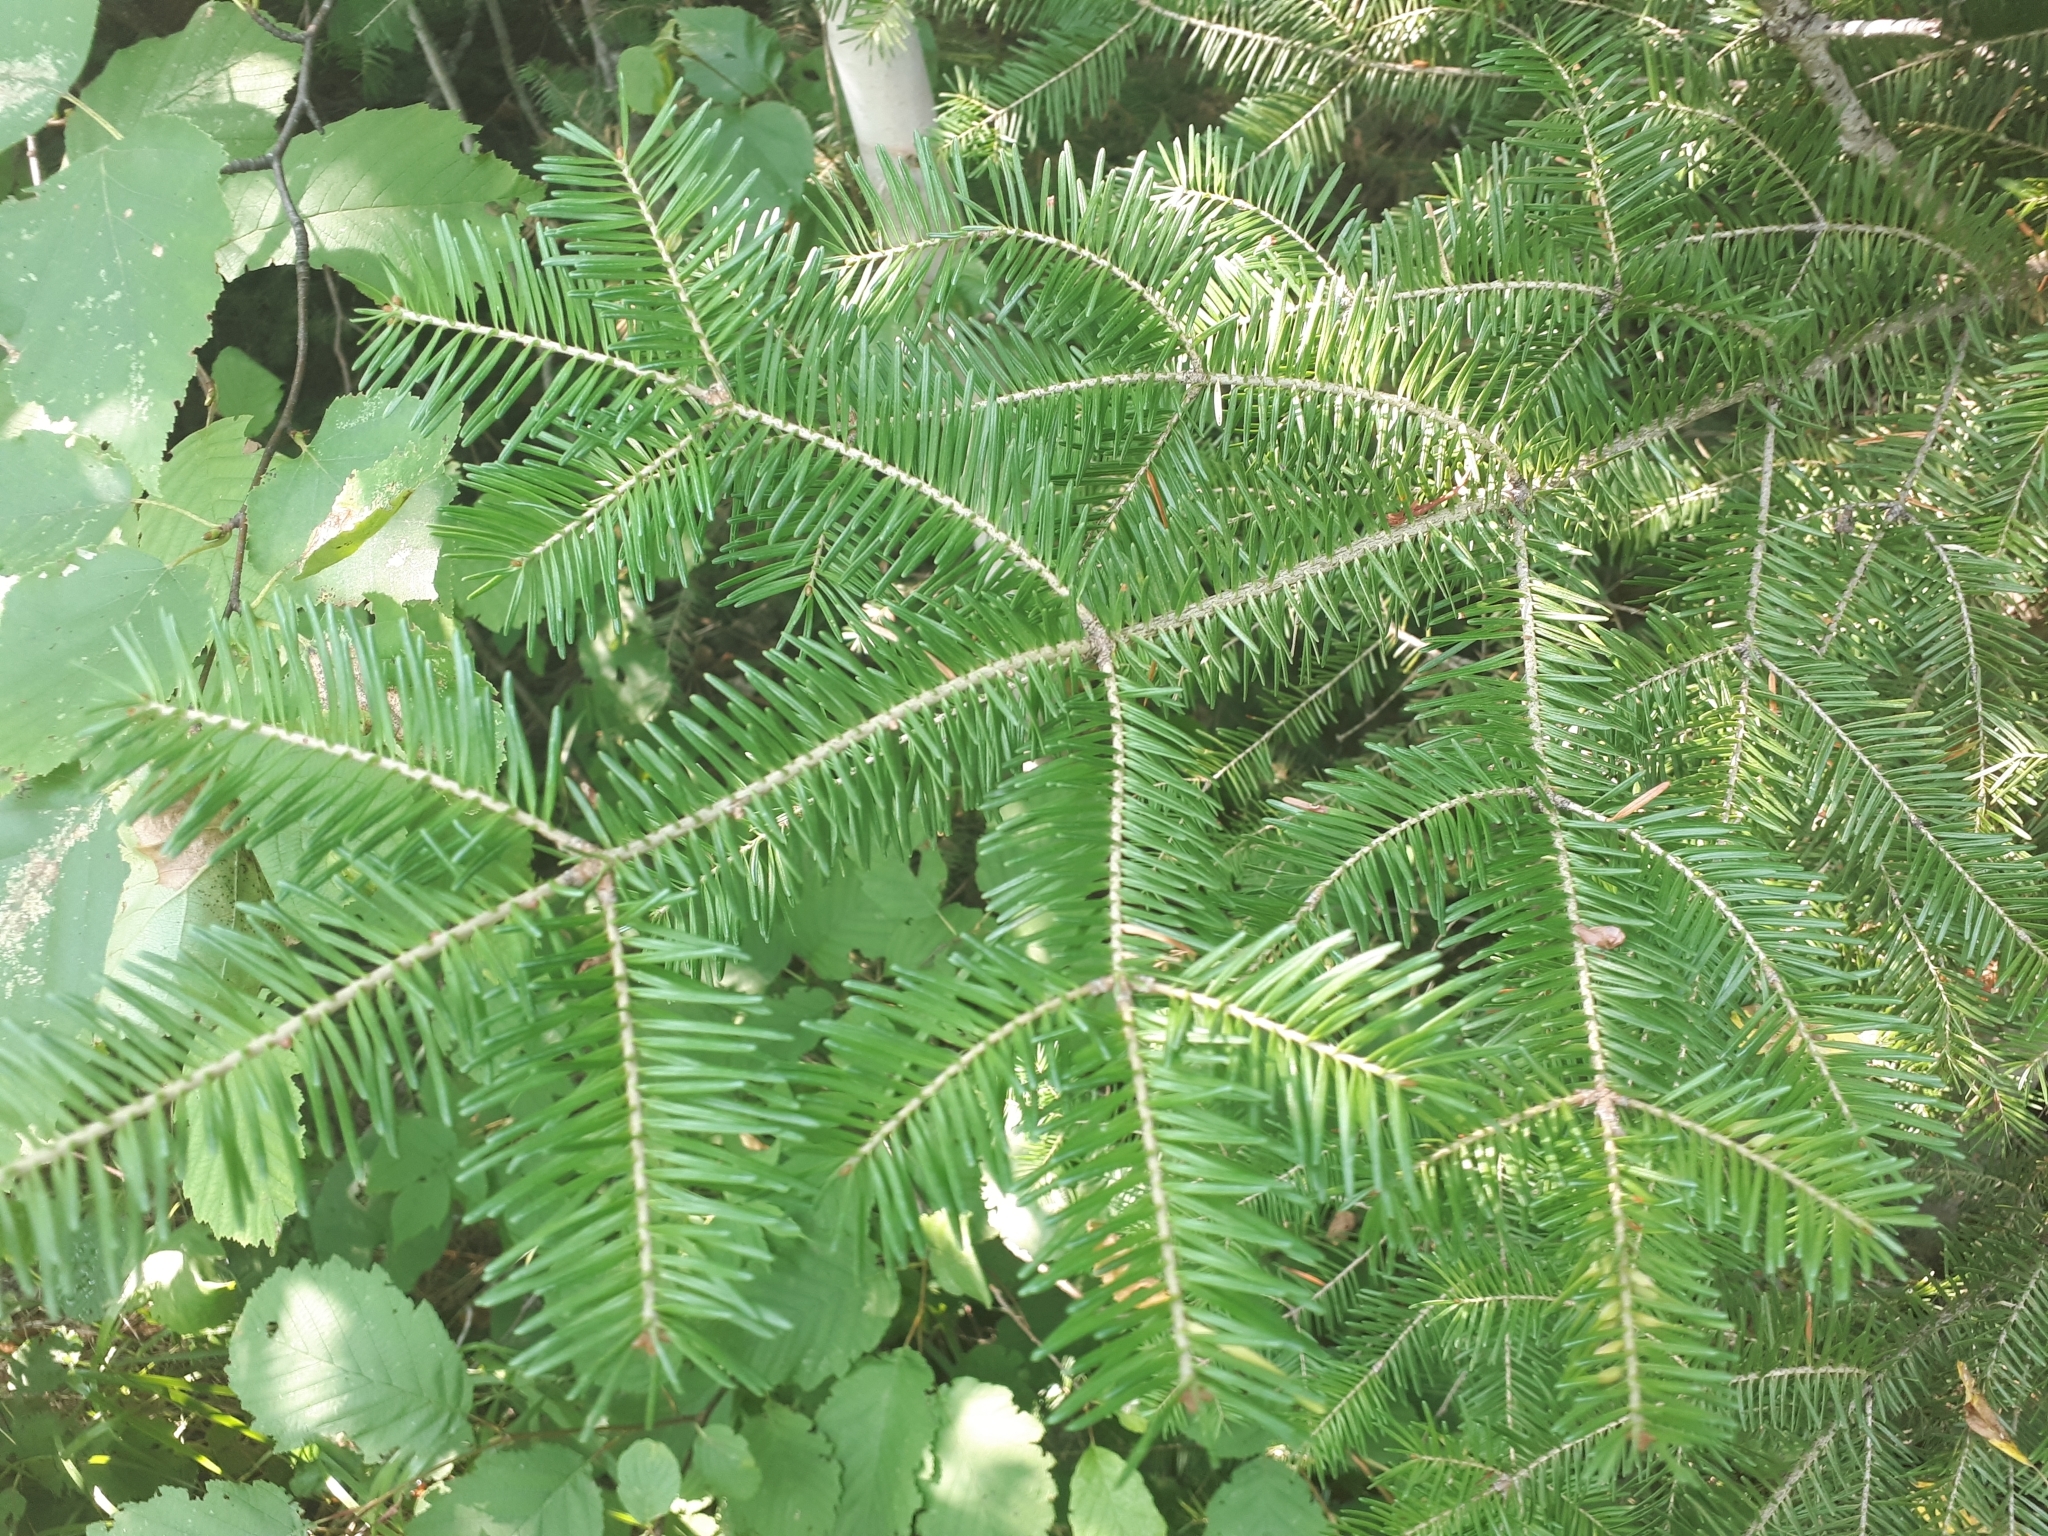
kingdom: Plantae
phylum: Tracheophyta
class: Pinopsida
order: Pinales
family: Pinaceae
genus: Abies
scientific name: Abies balsamea
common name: Balsam fir
